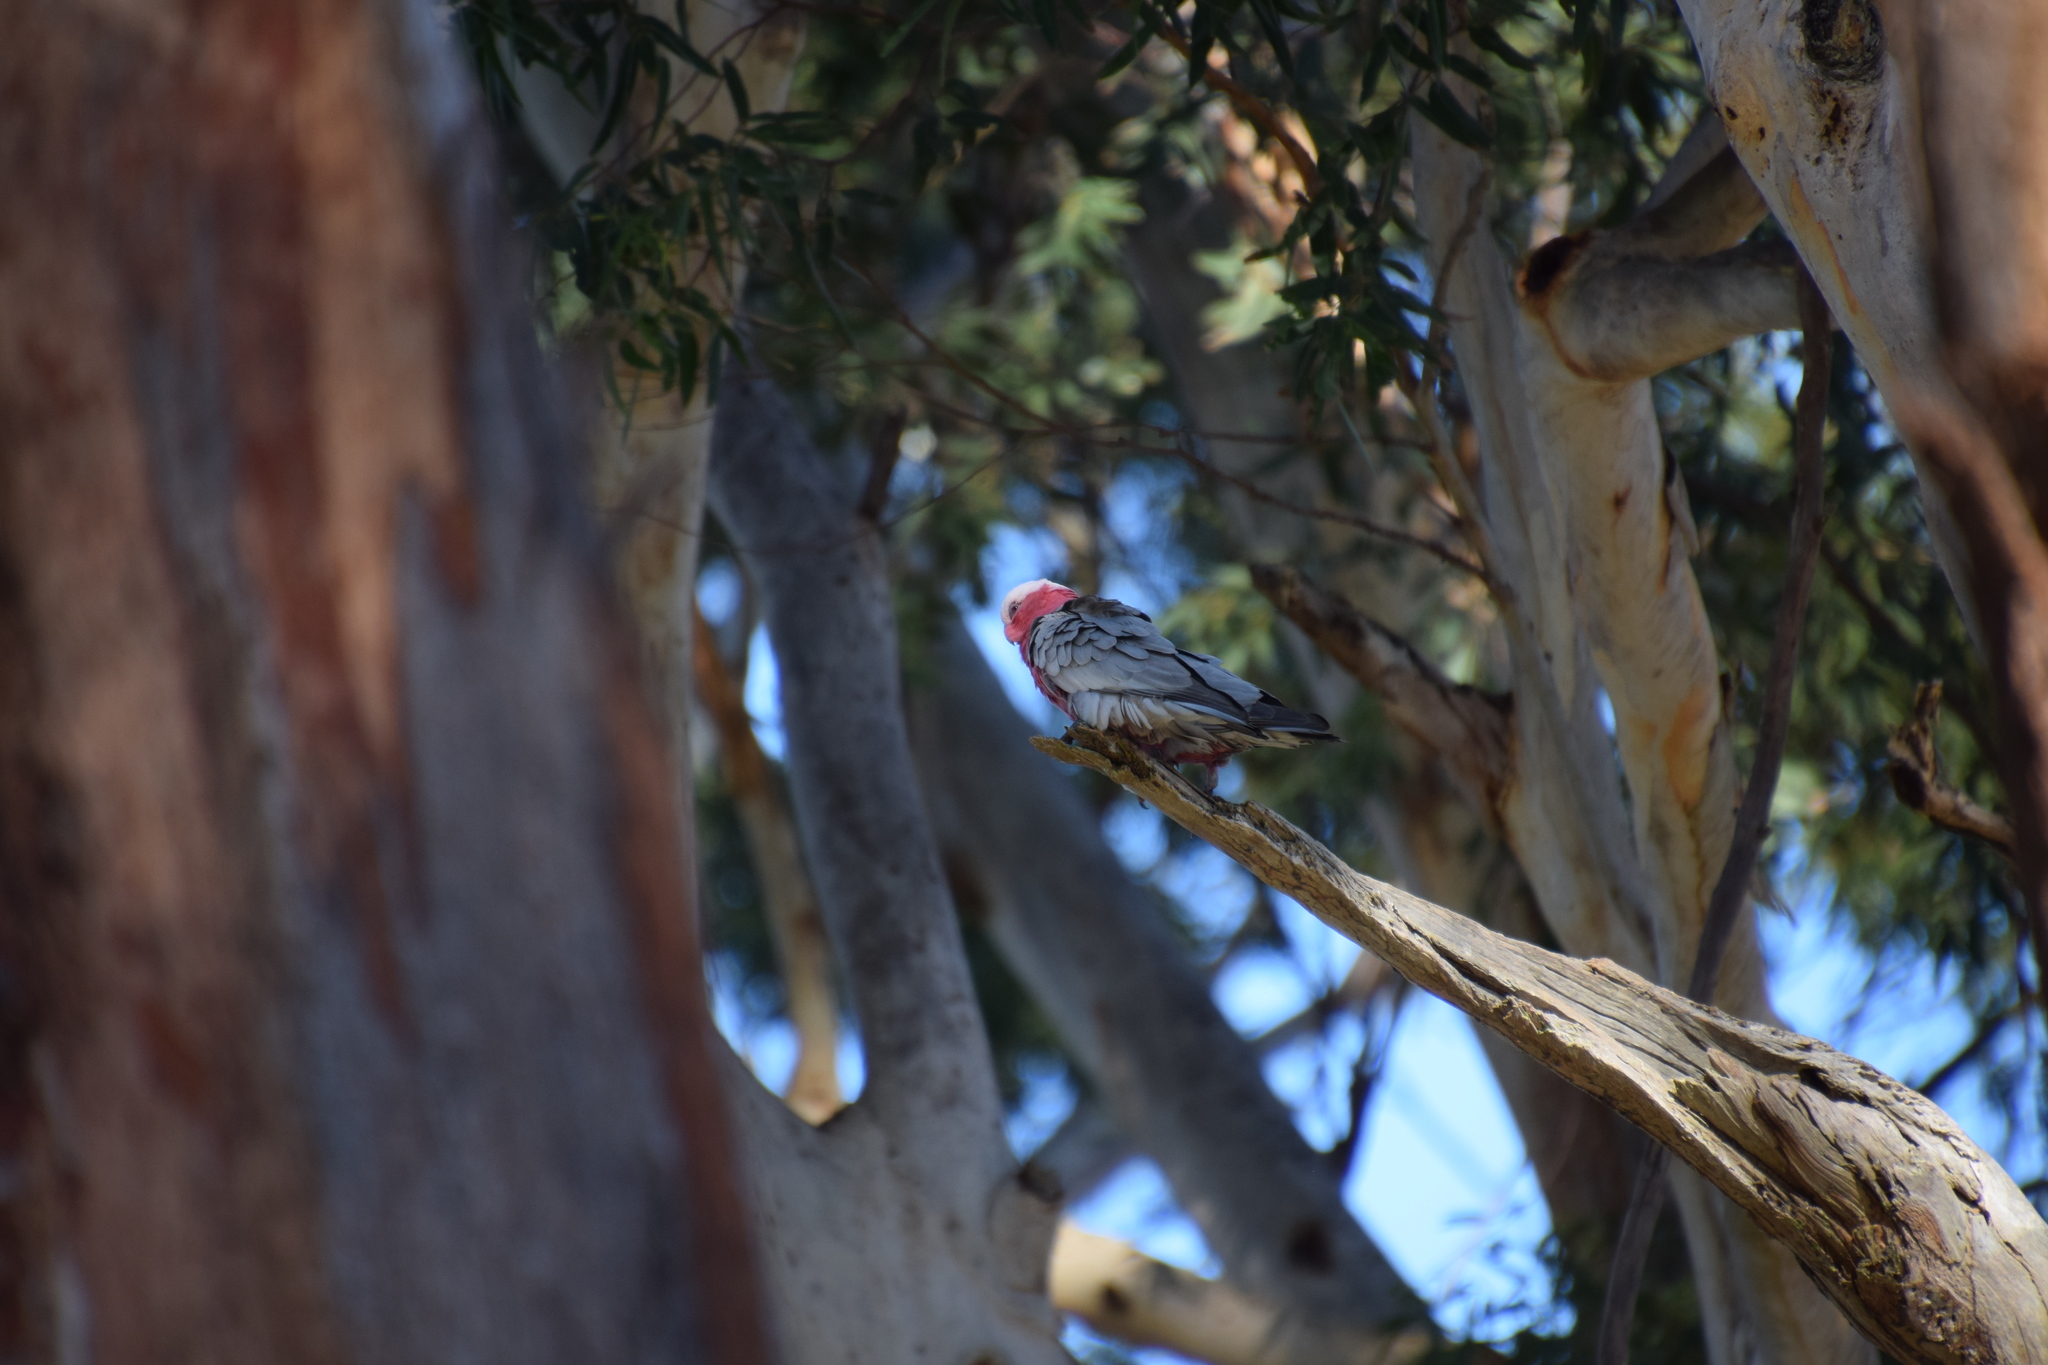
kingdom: Animalia
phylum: Chordata
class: Aves
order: Psittaciformes
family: Psittacidae
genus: Eolophus
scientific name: Eolophus roseicapilla
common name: Galah
